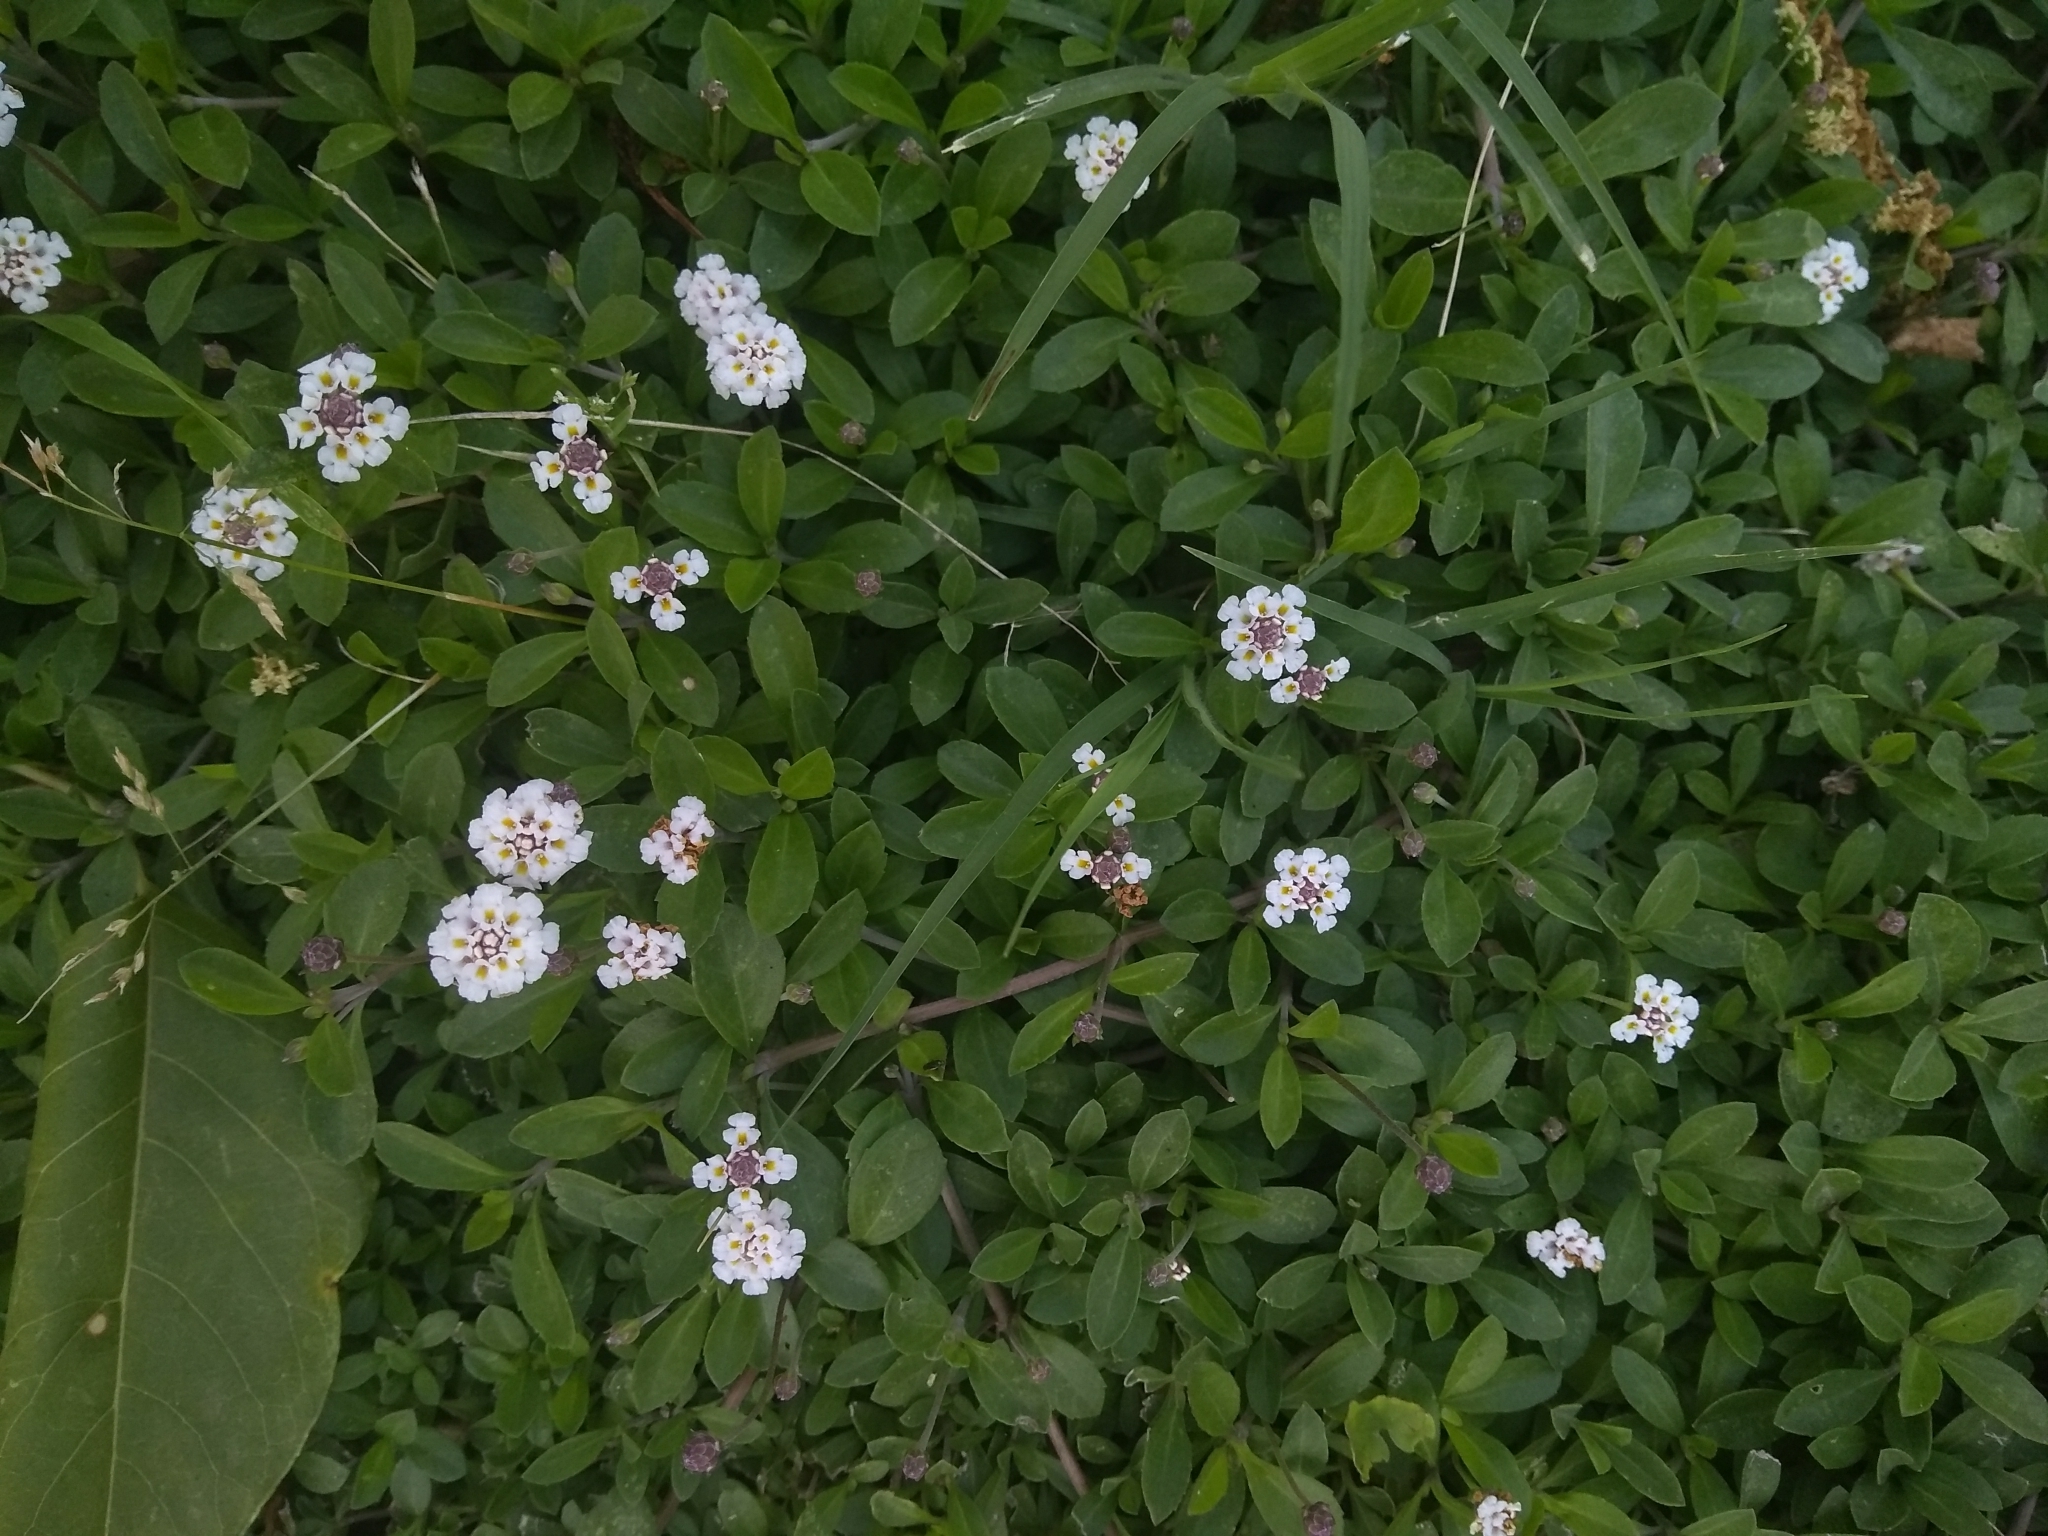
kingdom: Plantae
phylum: Tracheophyta
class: Magnoliopsida
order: Lamiales
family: Verbenaceae
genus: Phyla
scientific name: Phyla nodiflora
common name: Frogfruit
